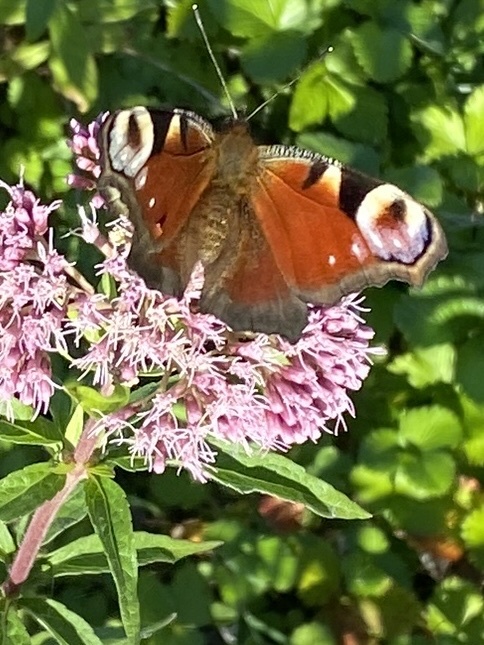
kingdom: Animalia
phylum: Arthropoda
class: Insecta
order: Lepidoptera
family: Nymphalidae
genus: Aglais
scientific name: Aglais io
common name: Peacock
